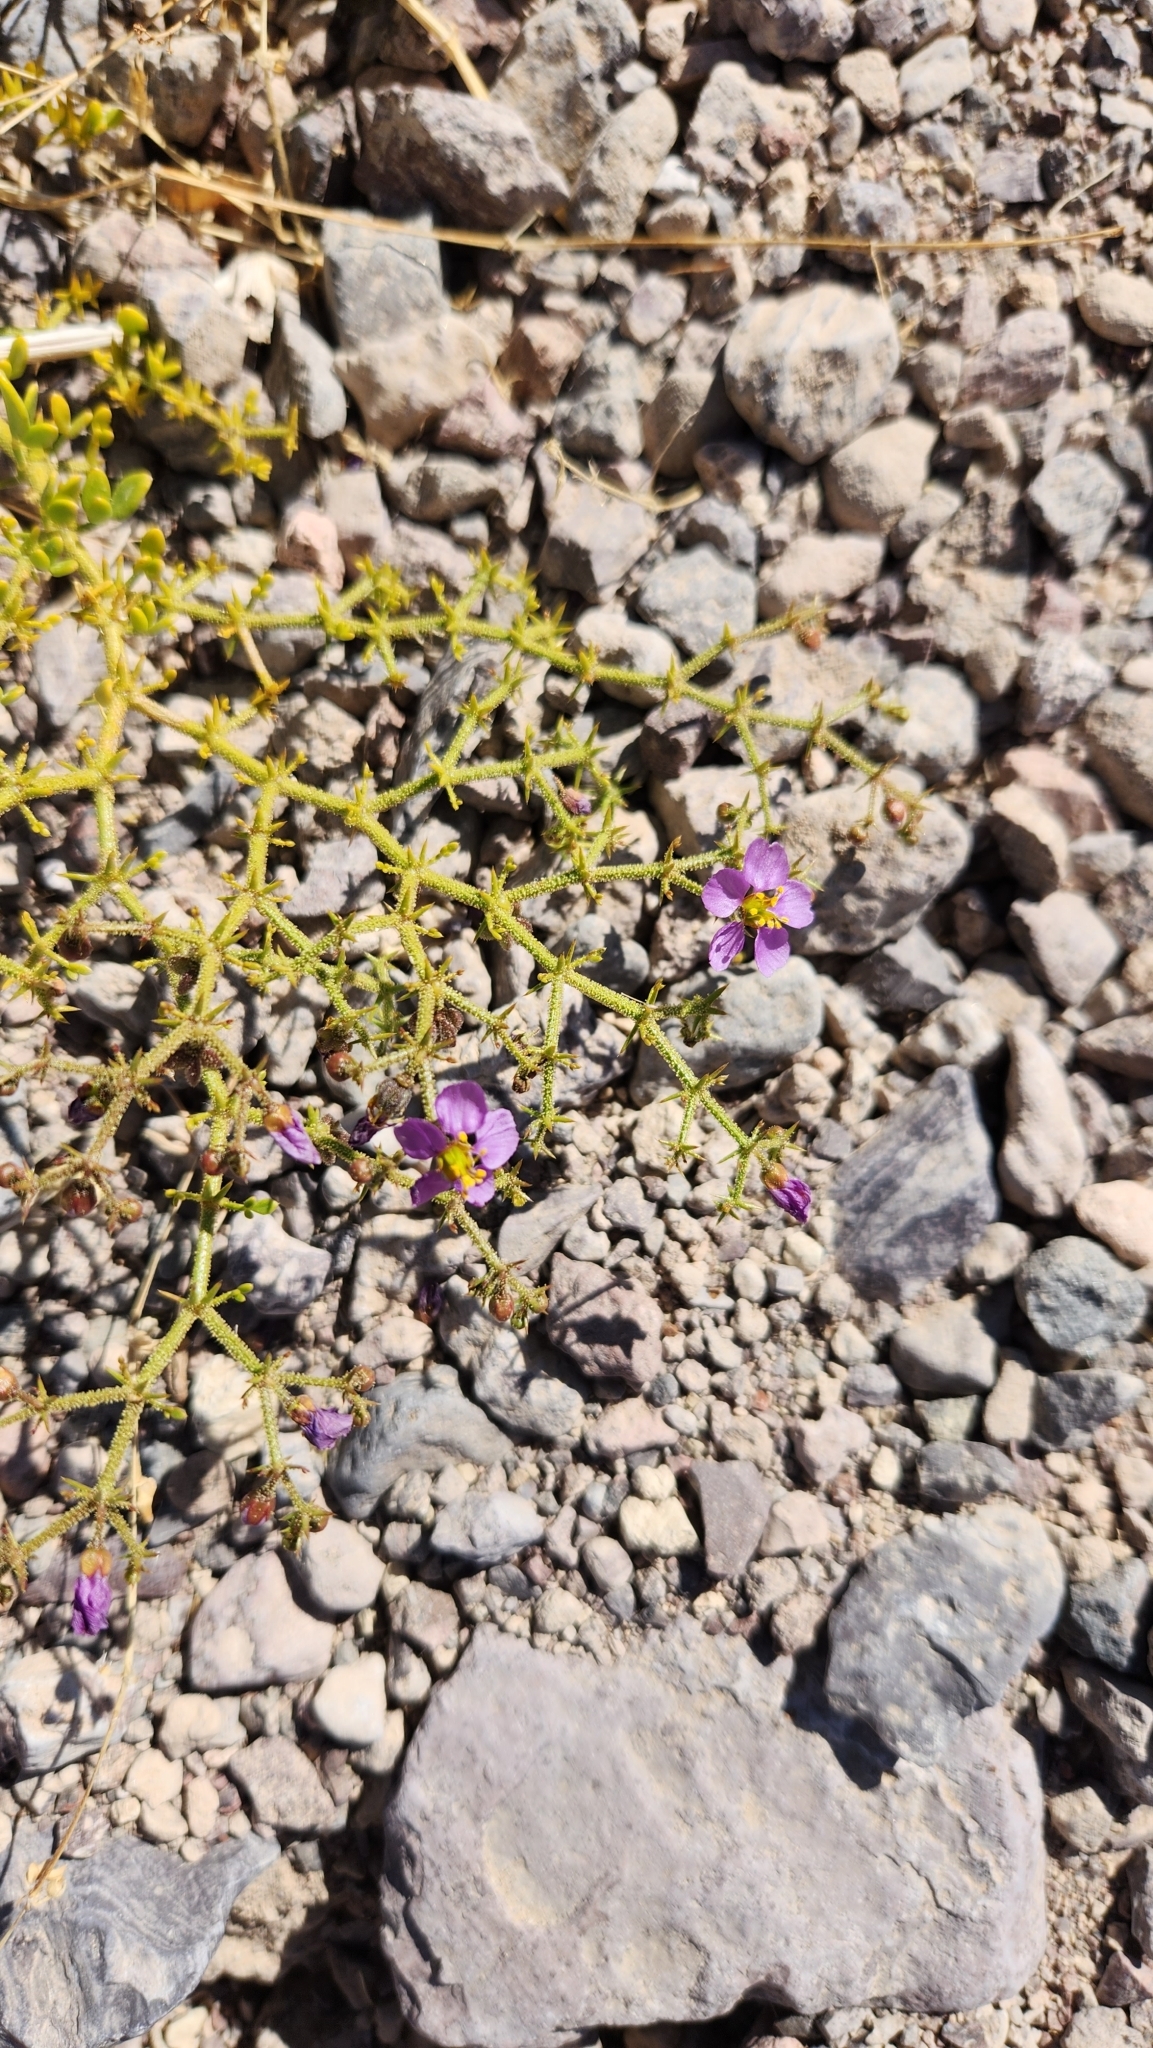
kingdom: Plantae
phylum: Tracheophyta
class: Magnoliopsida
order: Zygophyllales
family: Zygophyllaceae
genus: Fagonia
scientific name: Fagonia pachyacantha
